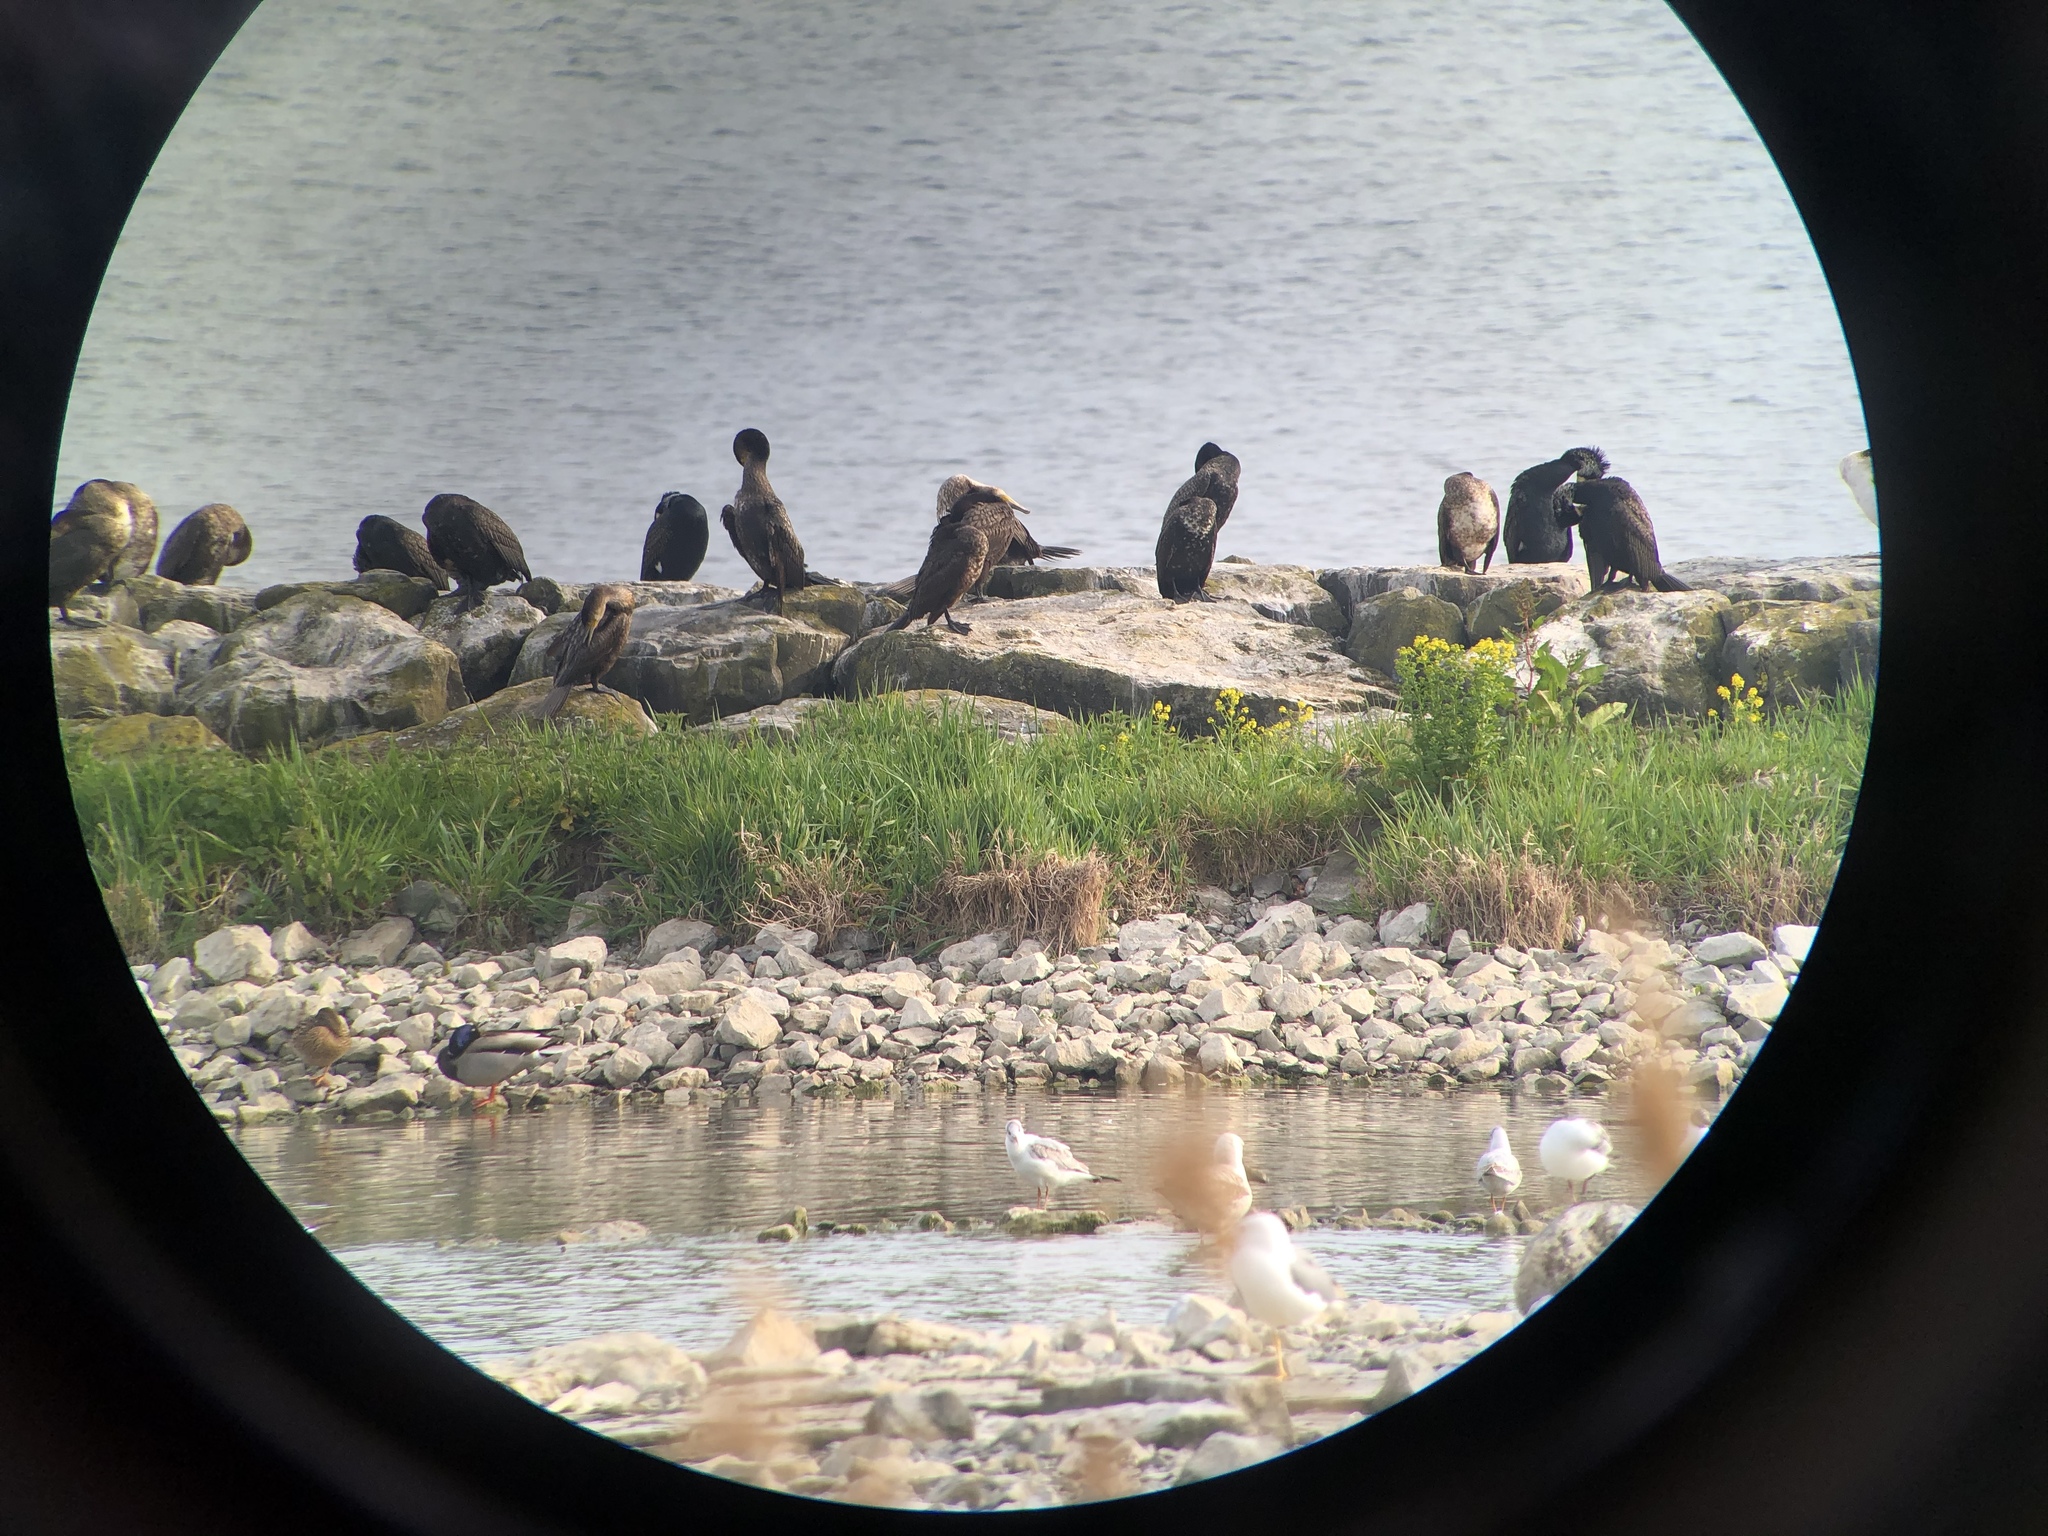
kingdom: Animalia
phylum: Chordata
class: Aves
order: Suliformes
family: Phalacrocoracidae
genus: Phalacrocorax
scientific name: Phalacrocorax carbo
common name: Great cormorant
